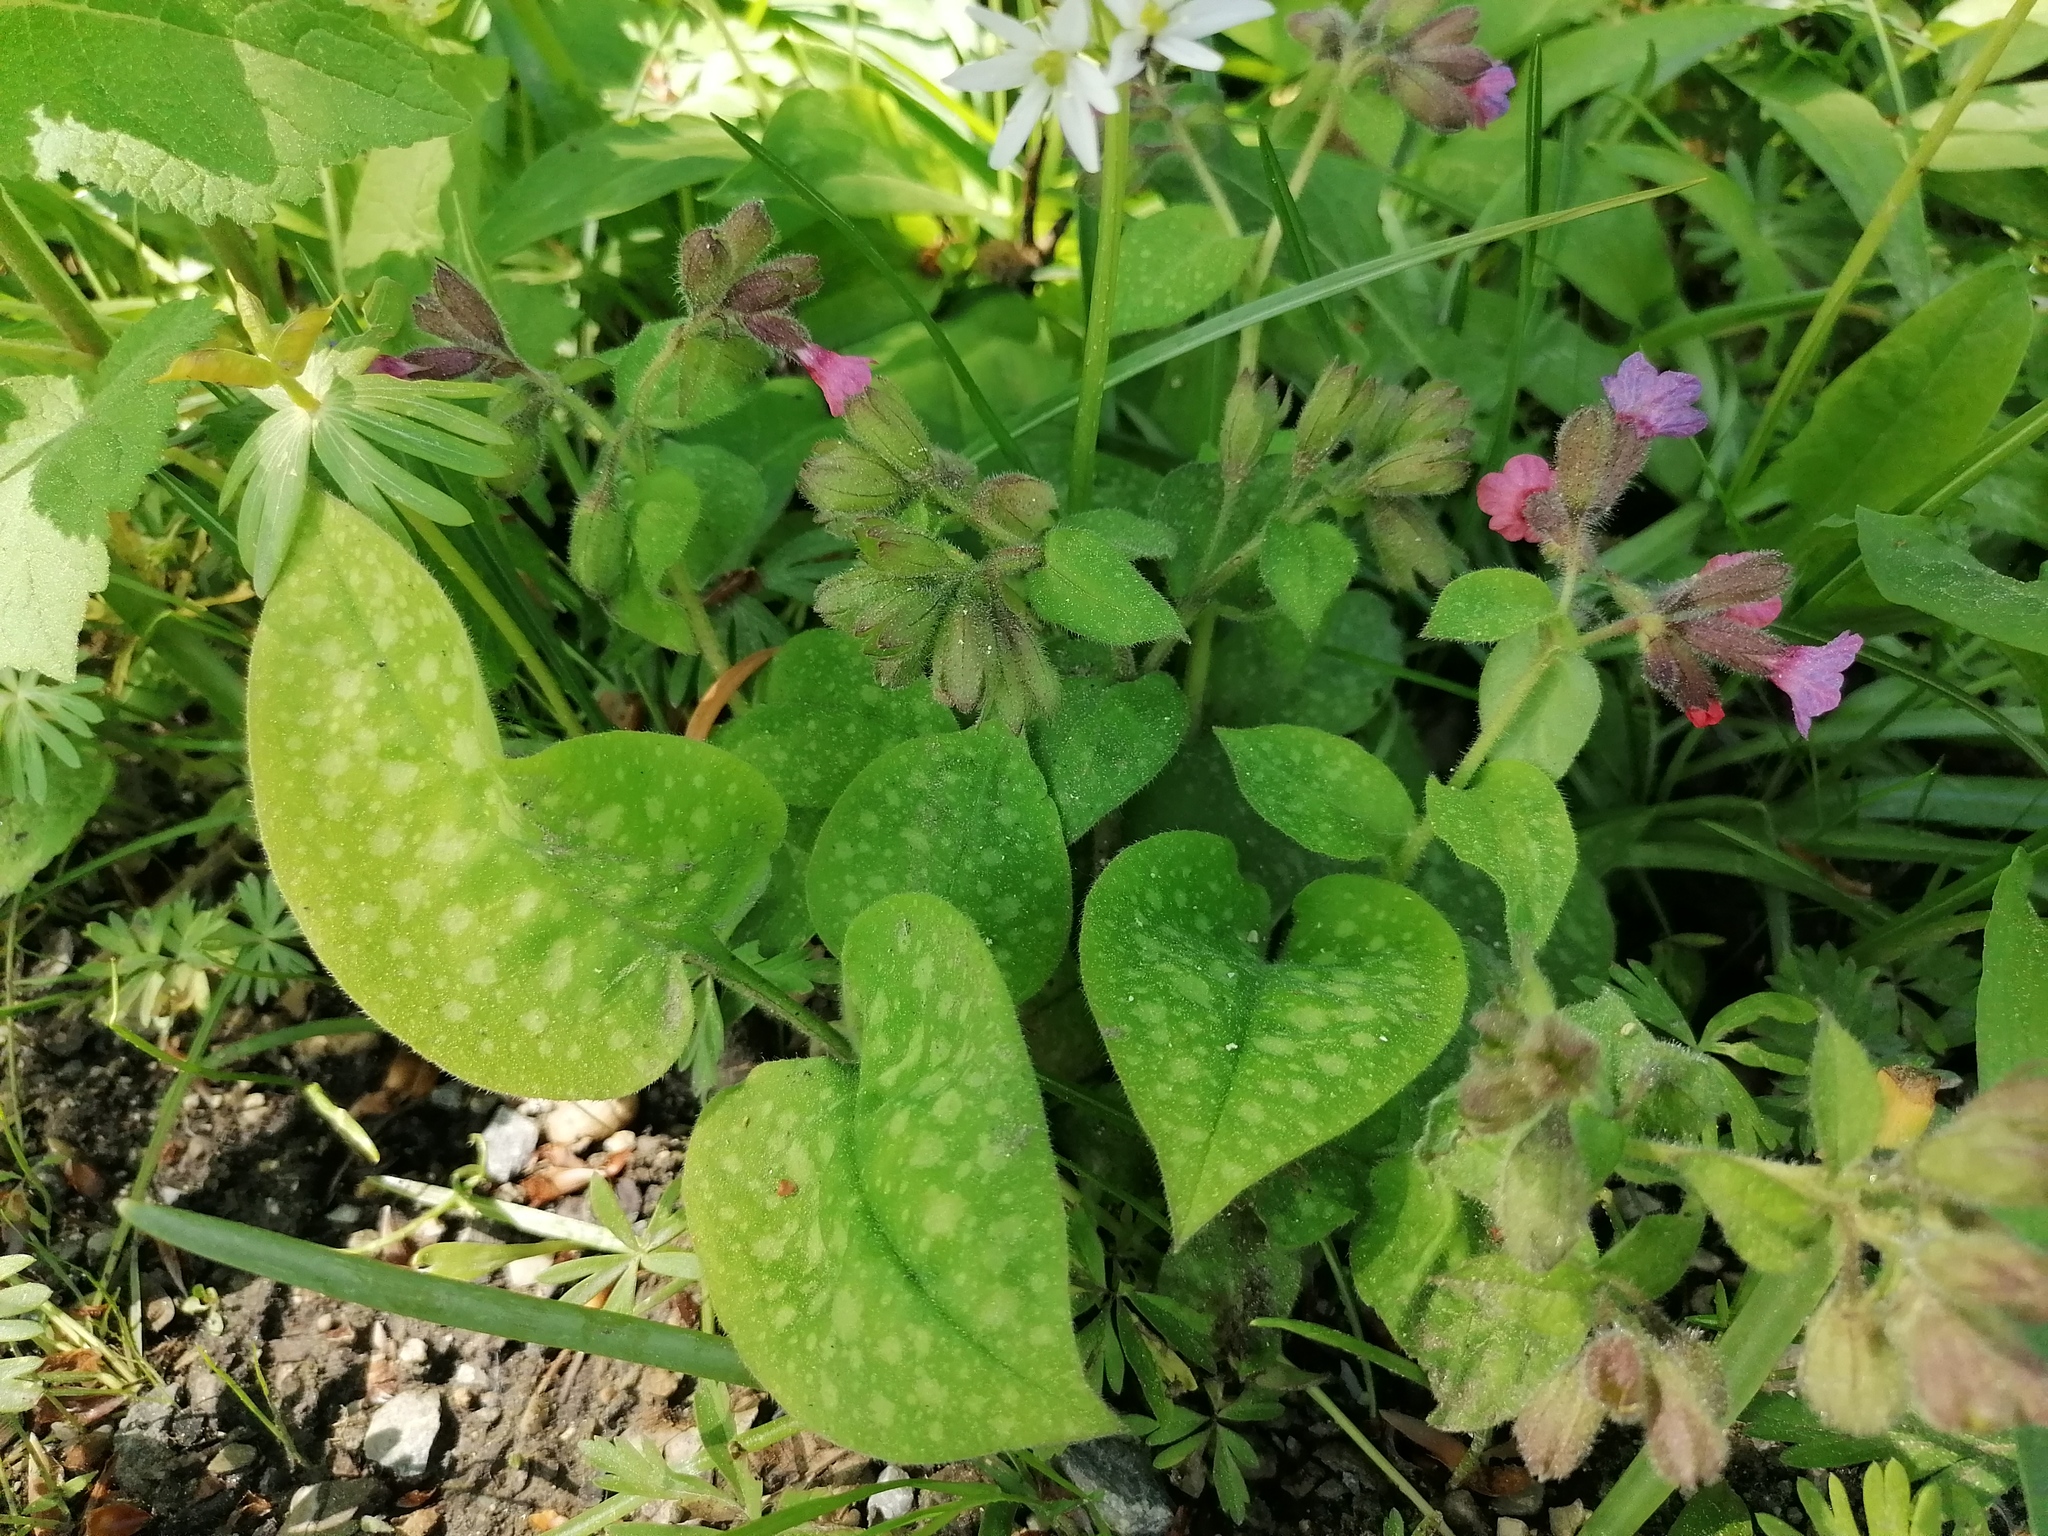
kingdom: Plantae
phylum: Tracheophyta
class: Magnoliopsida
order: Boraginales
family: Boraginaceae
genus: Pulmonaria
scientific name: Pulmonaria officinalis
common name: Lungwort
